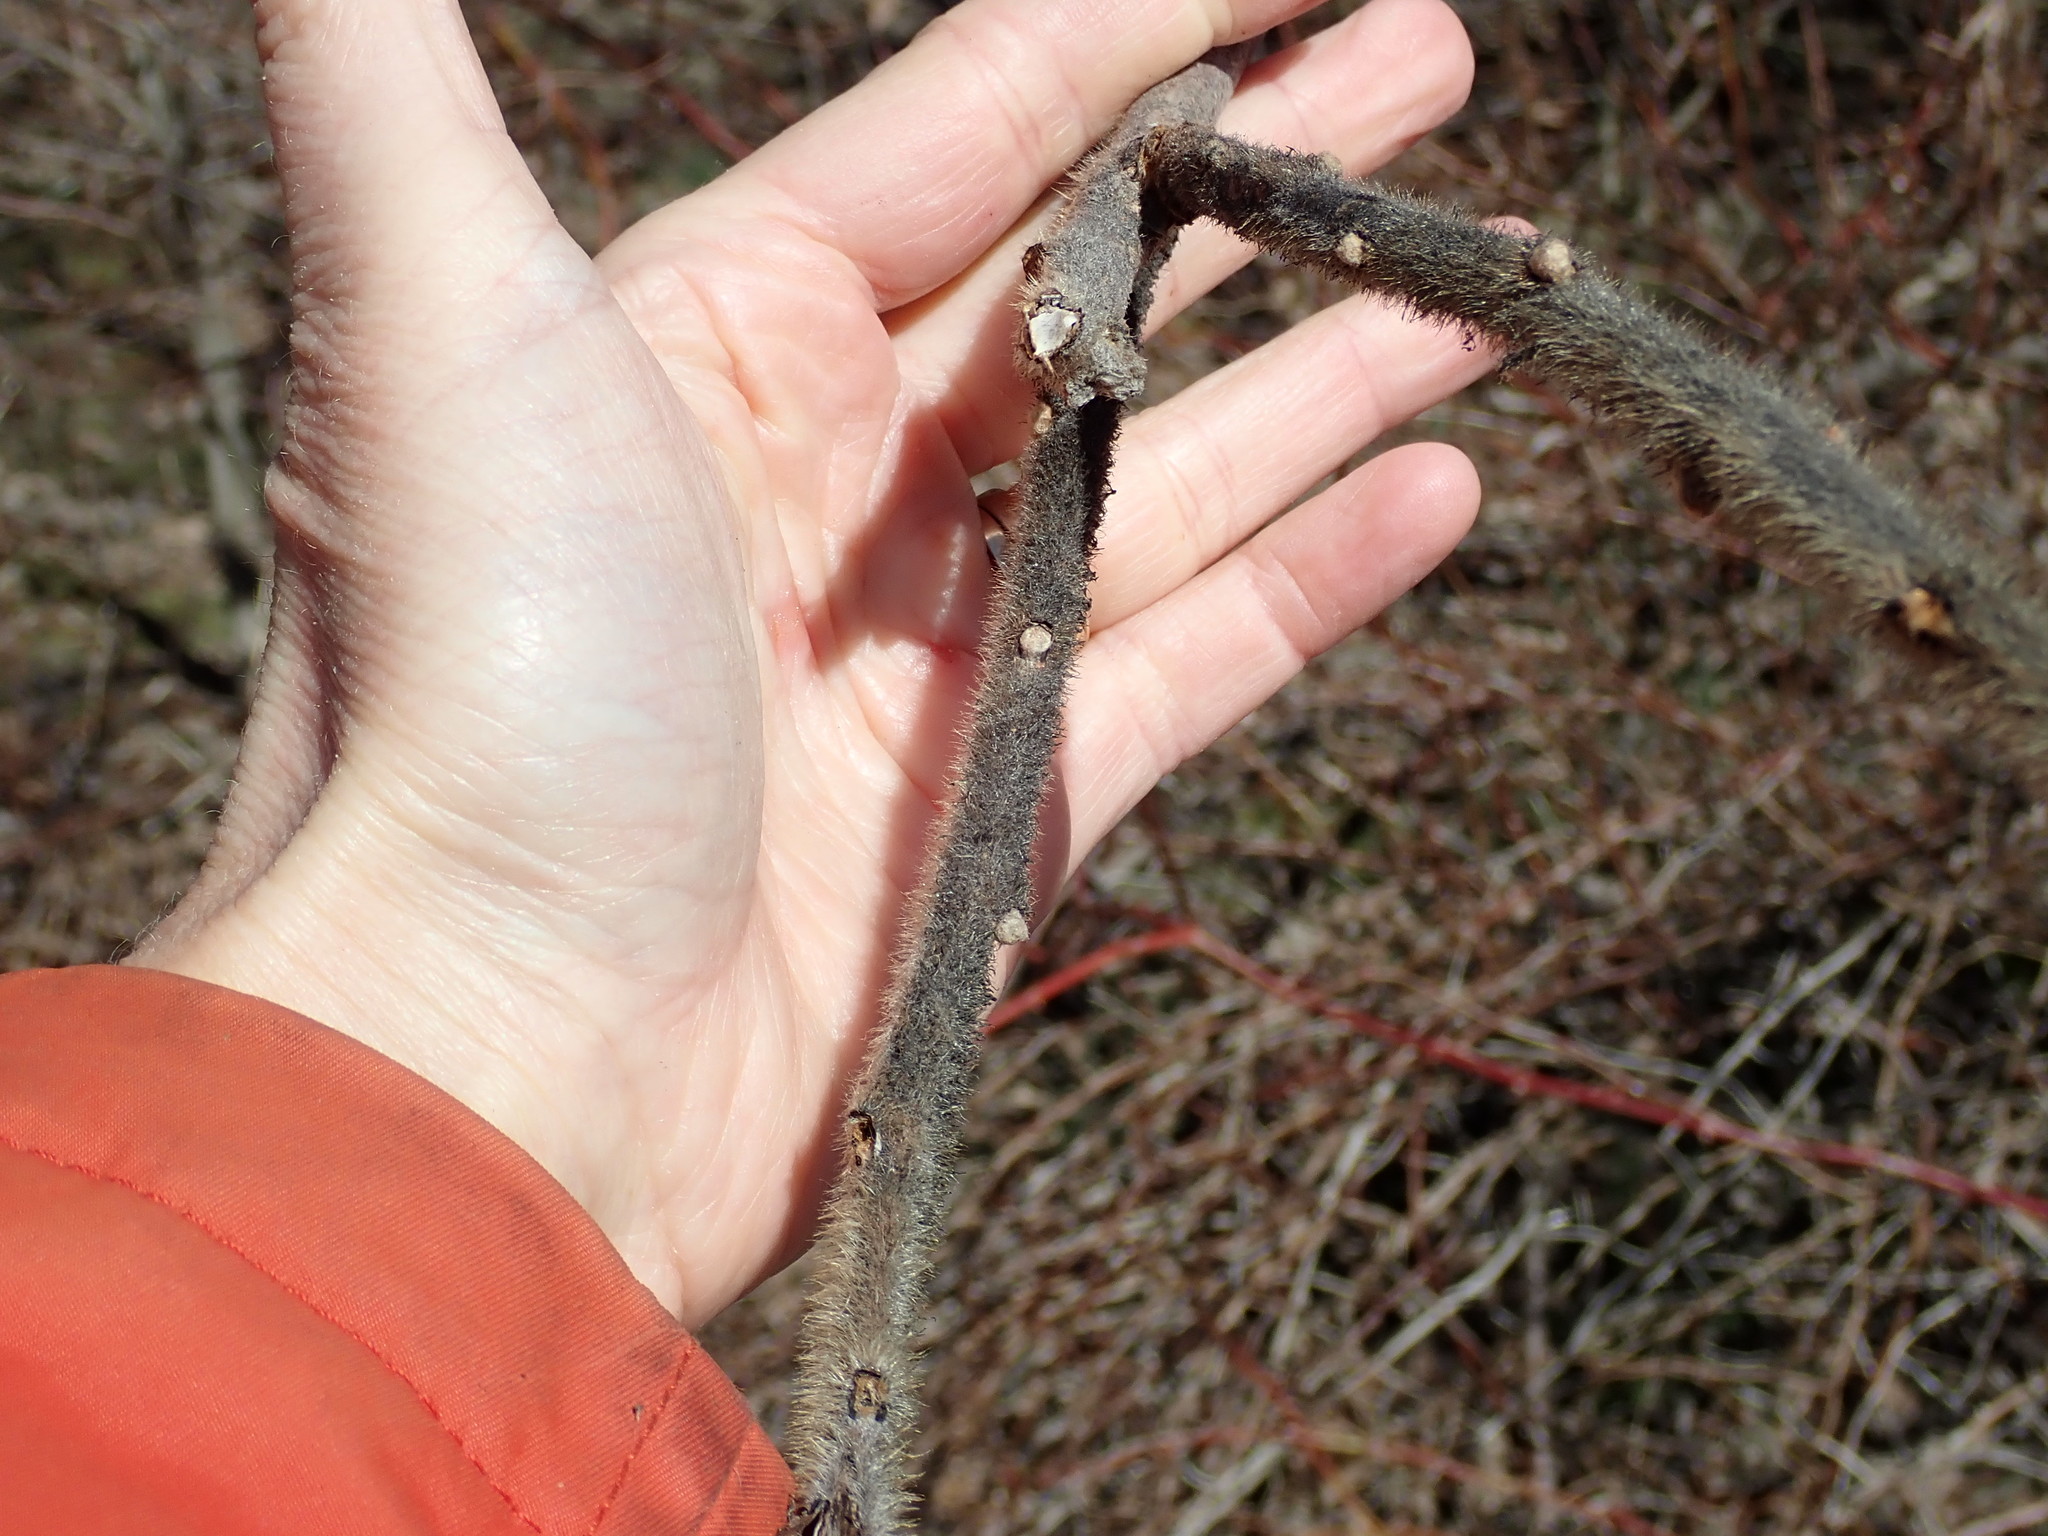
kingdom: Plantae
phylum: Tracheophyta
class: Magnoliopsida
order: Sapindales
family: Anacardiaceae
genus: Rhus
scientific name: Rhus typhina
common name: Staghorn sumac
